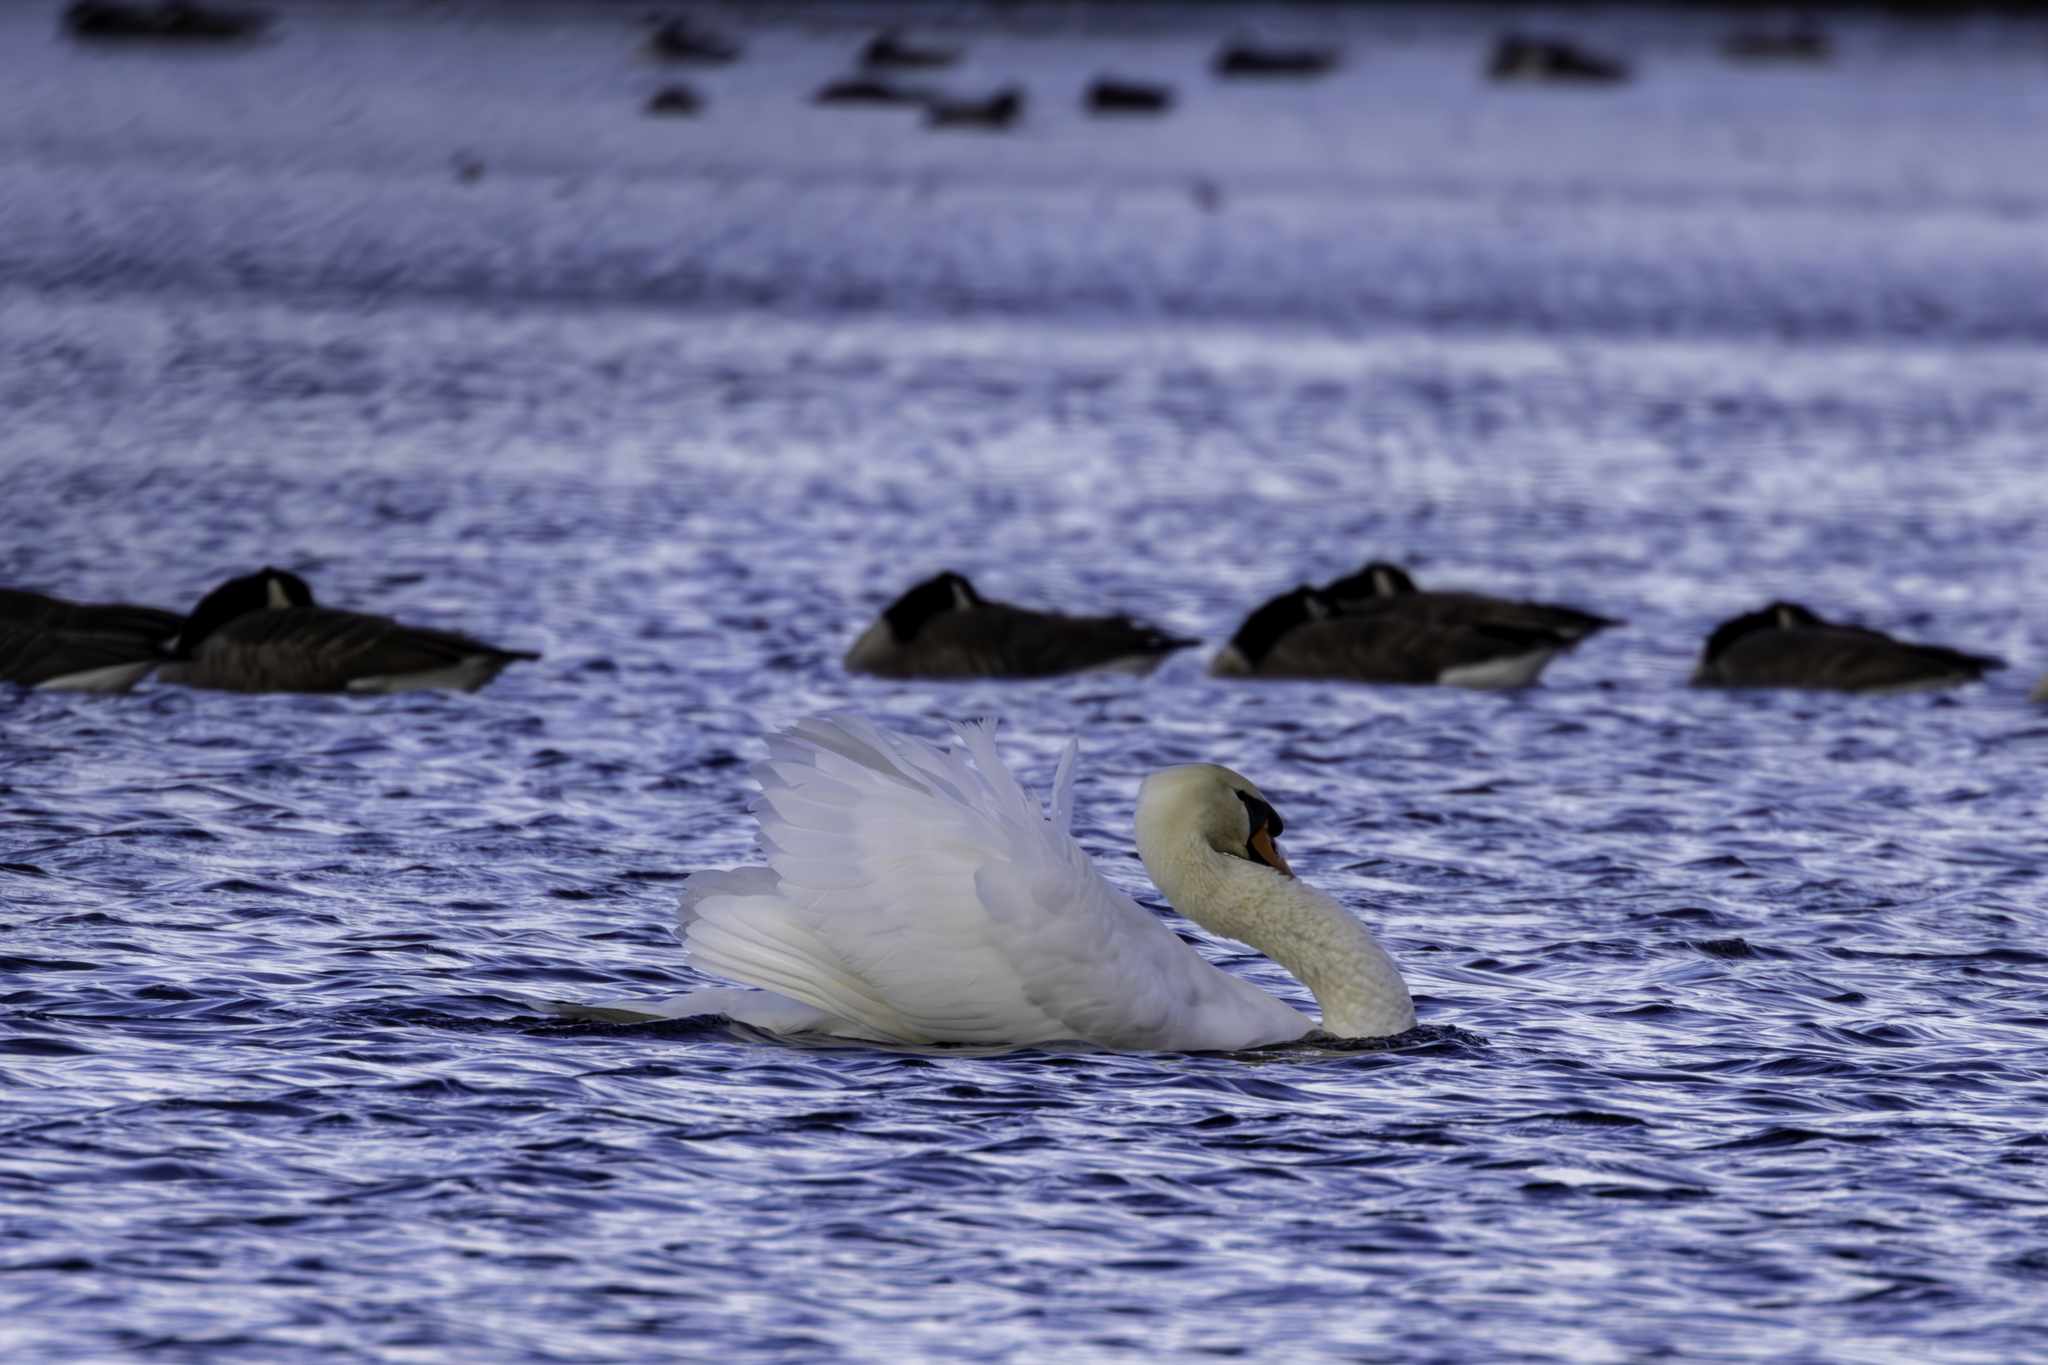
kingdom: Animalia
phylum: Chordata
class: Aves
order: Anseriformes
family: Anatidae
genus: Cygnus
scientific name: Cygnus olor
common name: Mute swan
